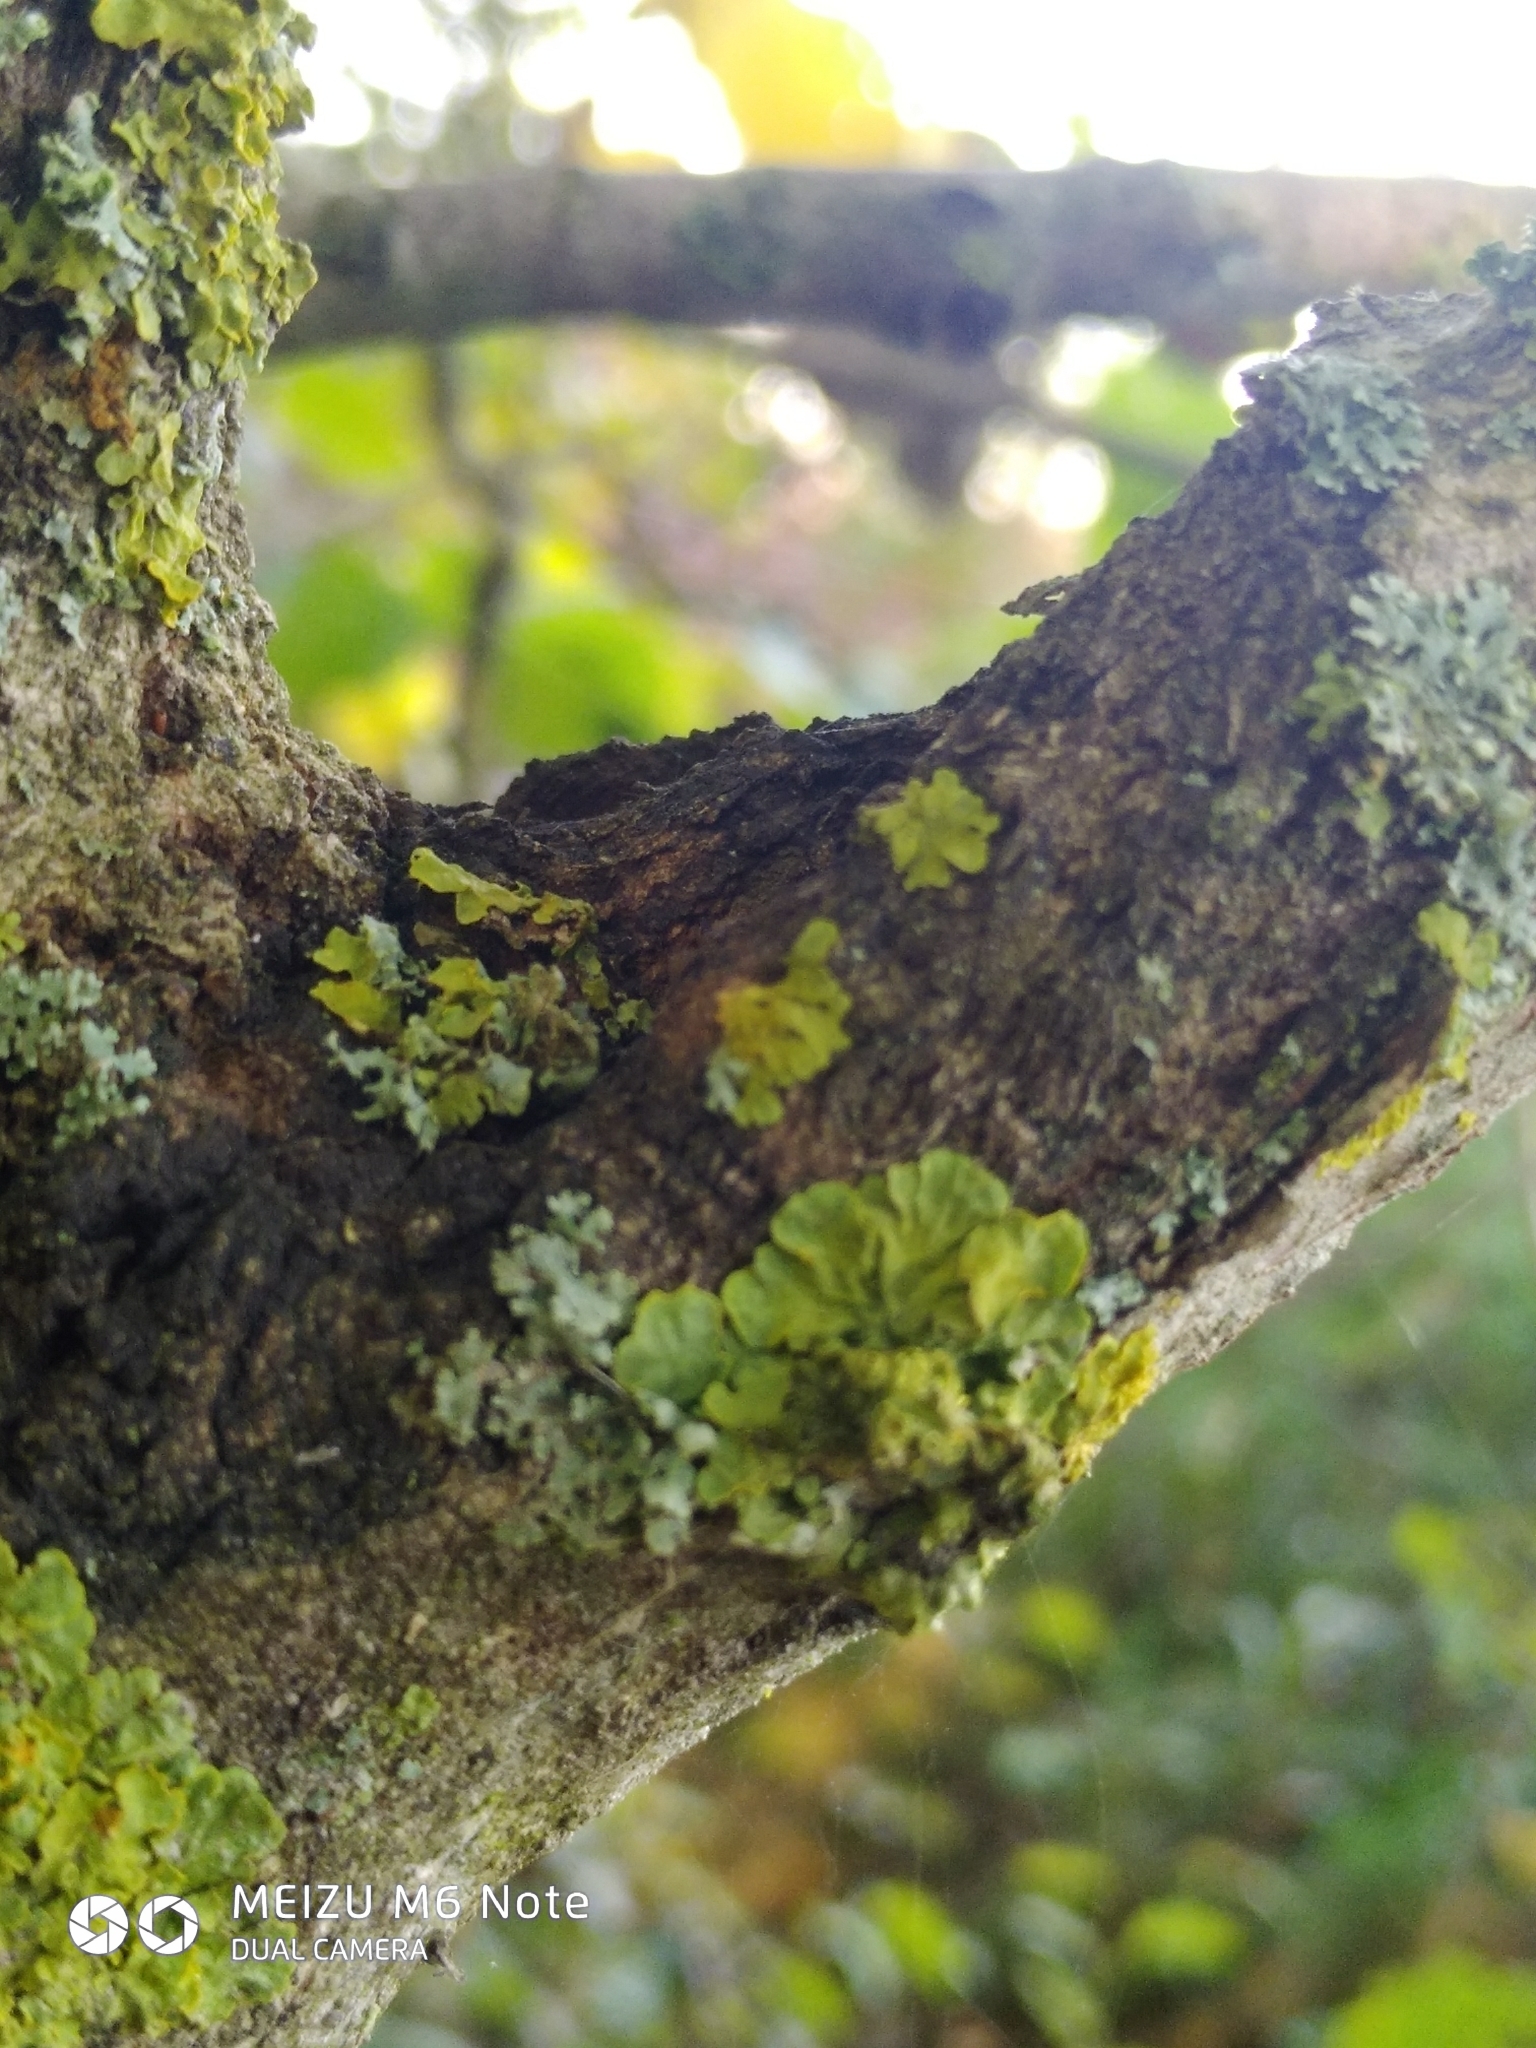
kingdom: Fungi
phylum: Ascomycota
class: Lecanoromycetes
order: Teloschistales
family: Teloschistaceae
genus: Xanthoria
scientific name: Xanthoria parietina
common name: Common orange lichen
